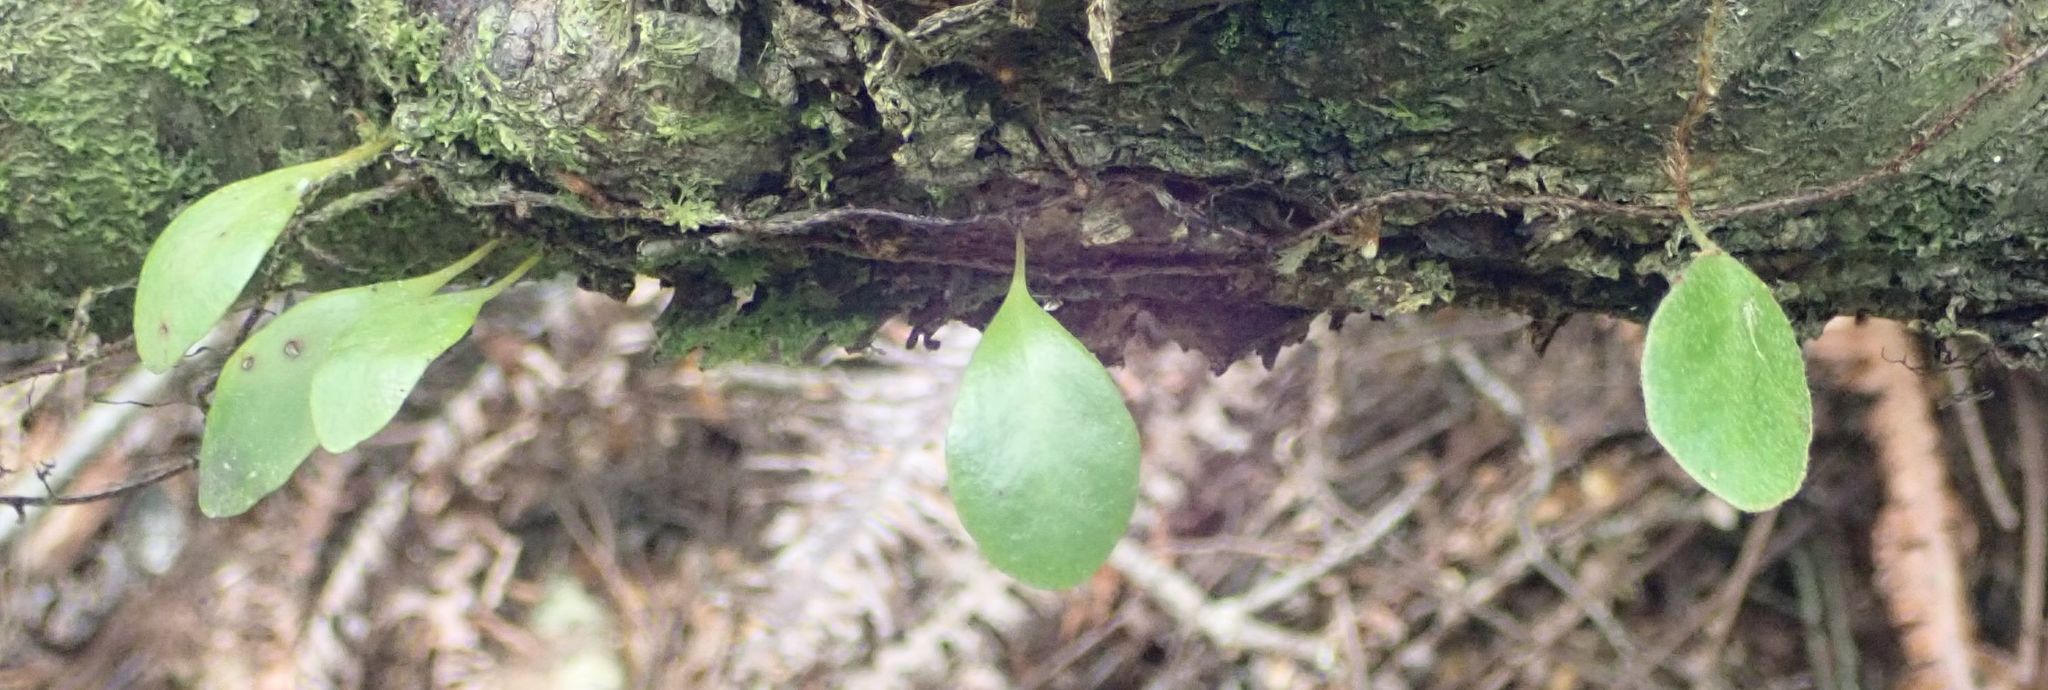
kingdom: Plantae
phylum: Tracheophyta
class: Polypodiopsida
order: Polypodiales
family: Polypodiaceae
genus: Pyrrosia
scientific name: Pyrrosia eleagnifolia
